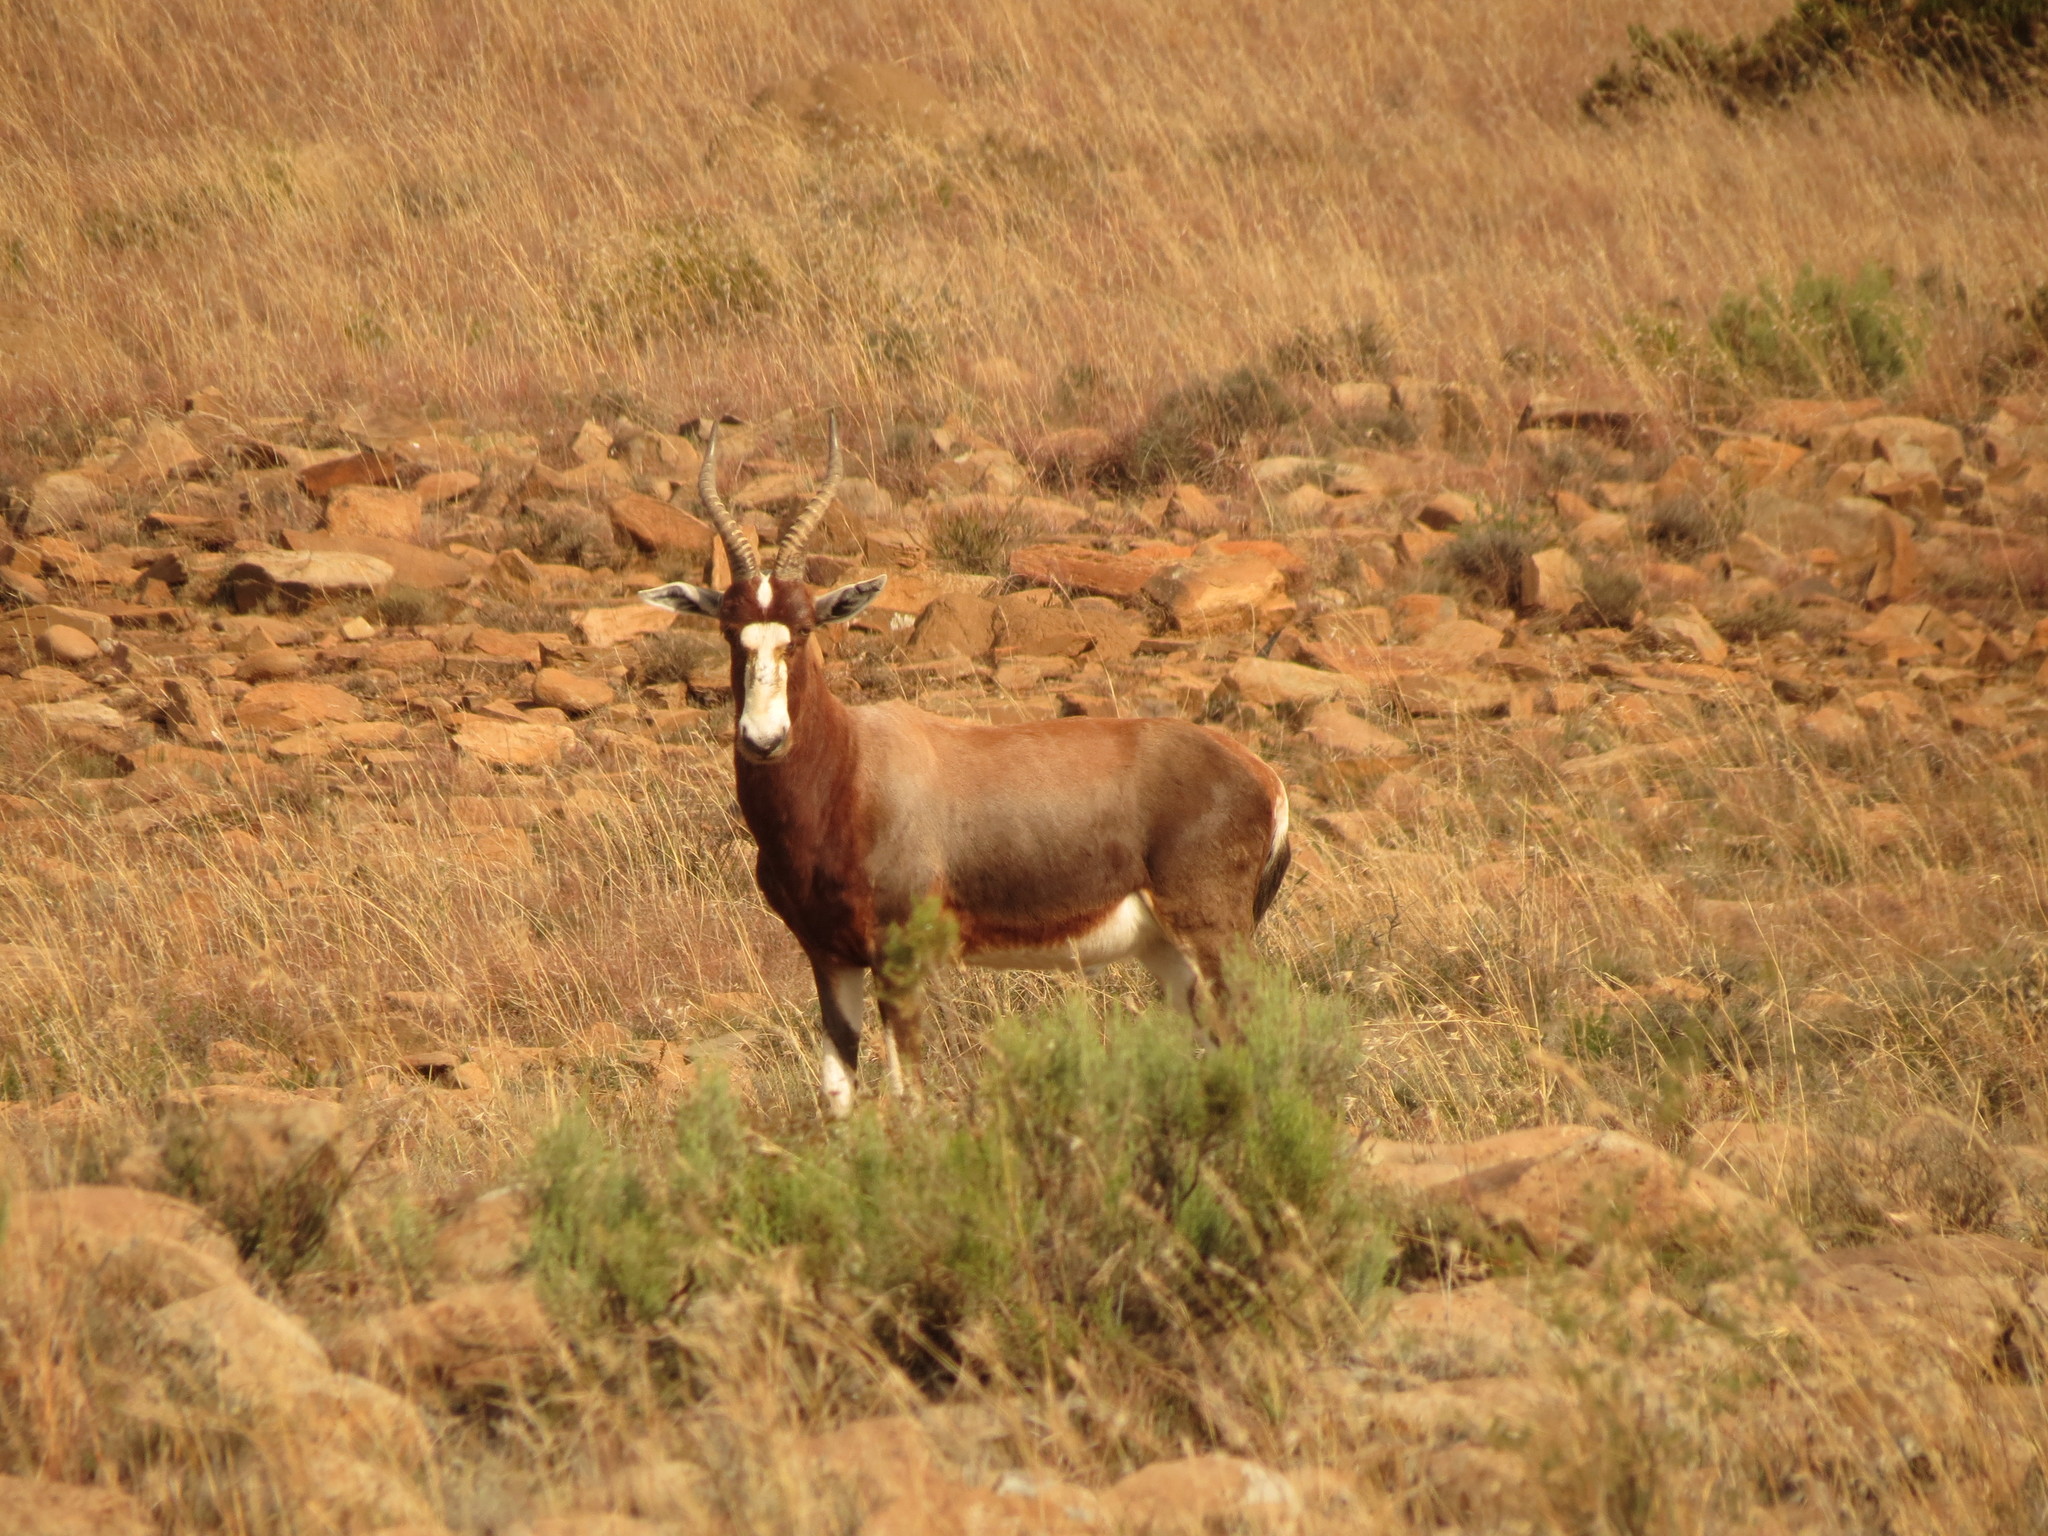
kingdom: Animalia
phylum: Chordata
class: Mammalia
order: Artiodactyla
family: Bovidae
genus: Damaliscus
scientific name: Damaliscus pygargus
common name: Bontebok
